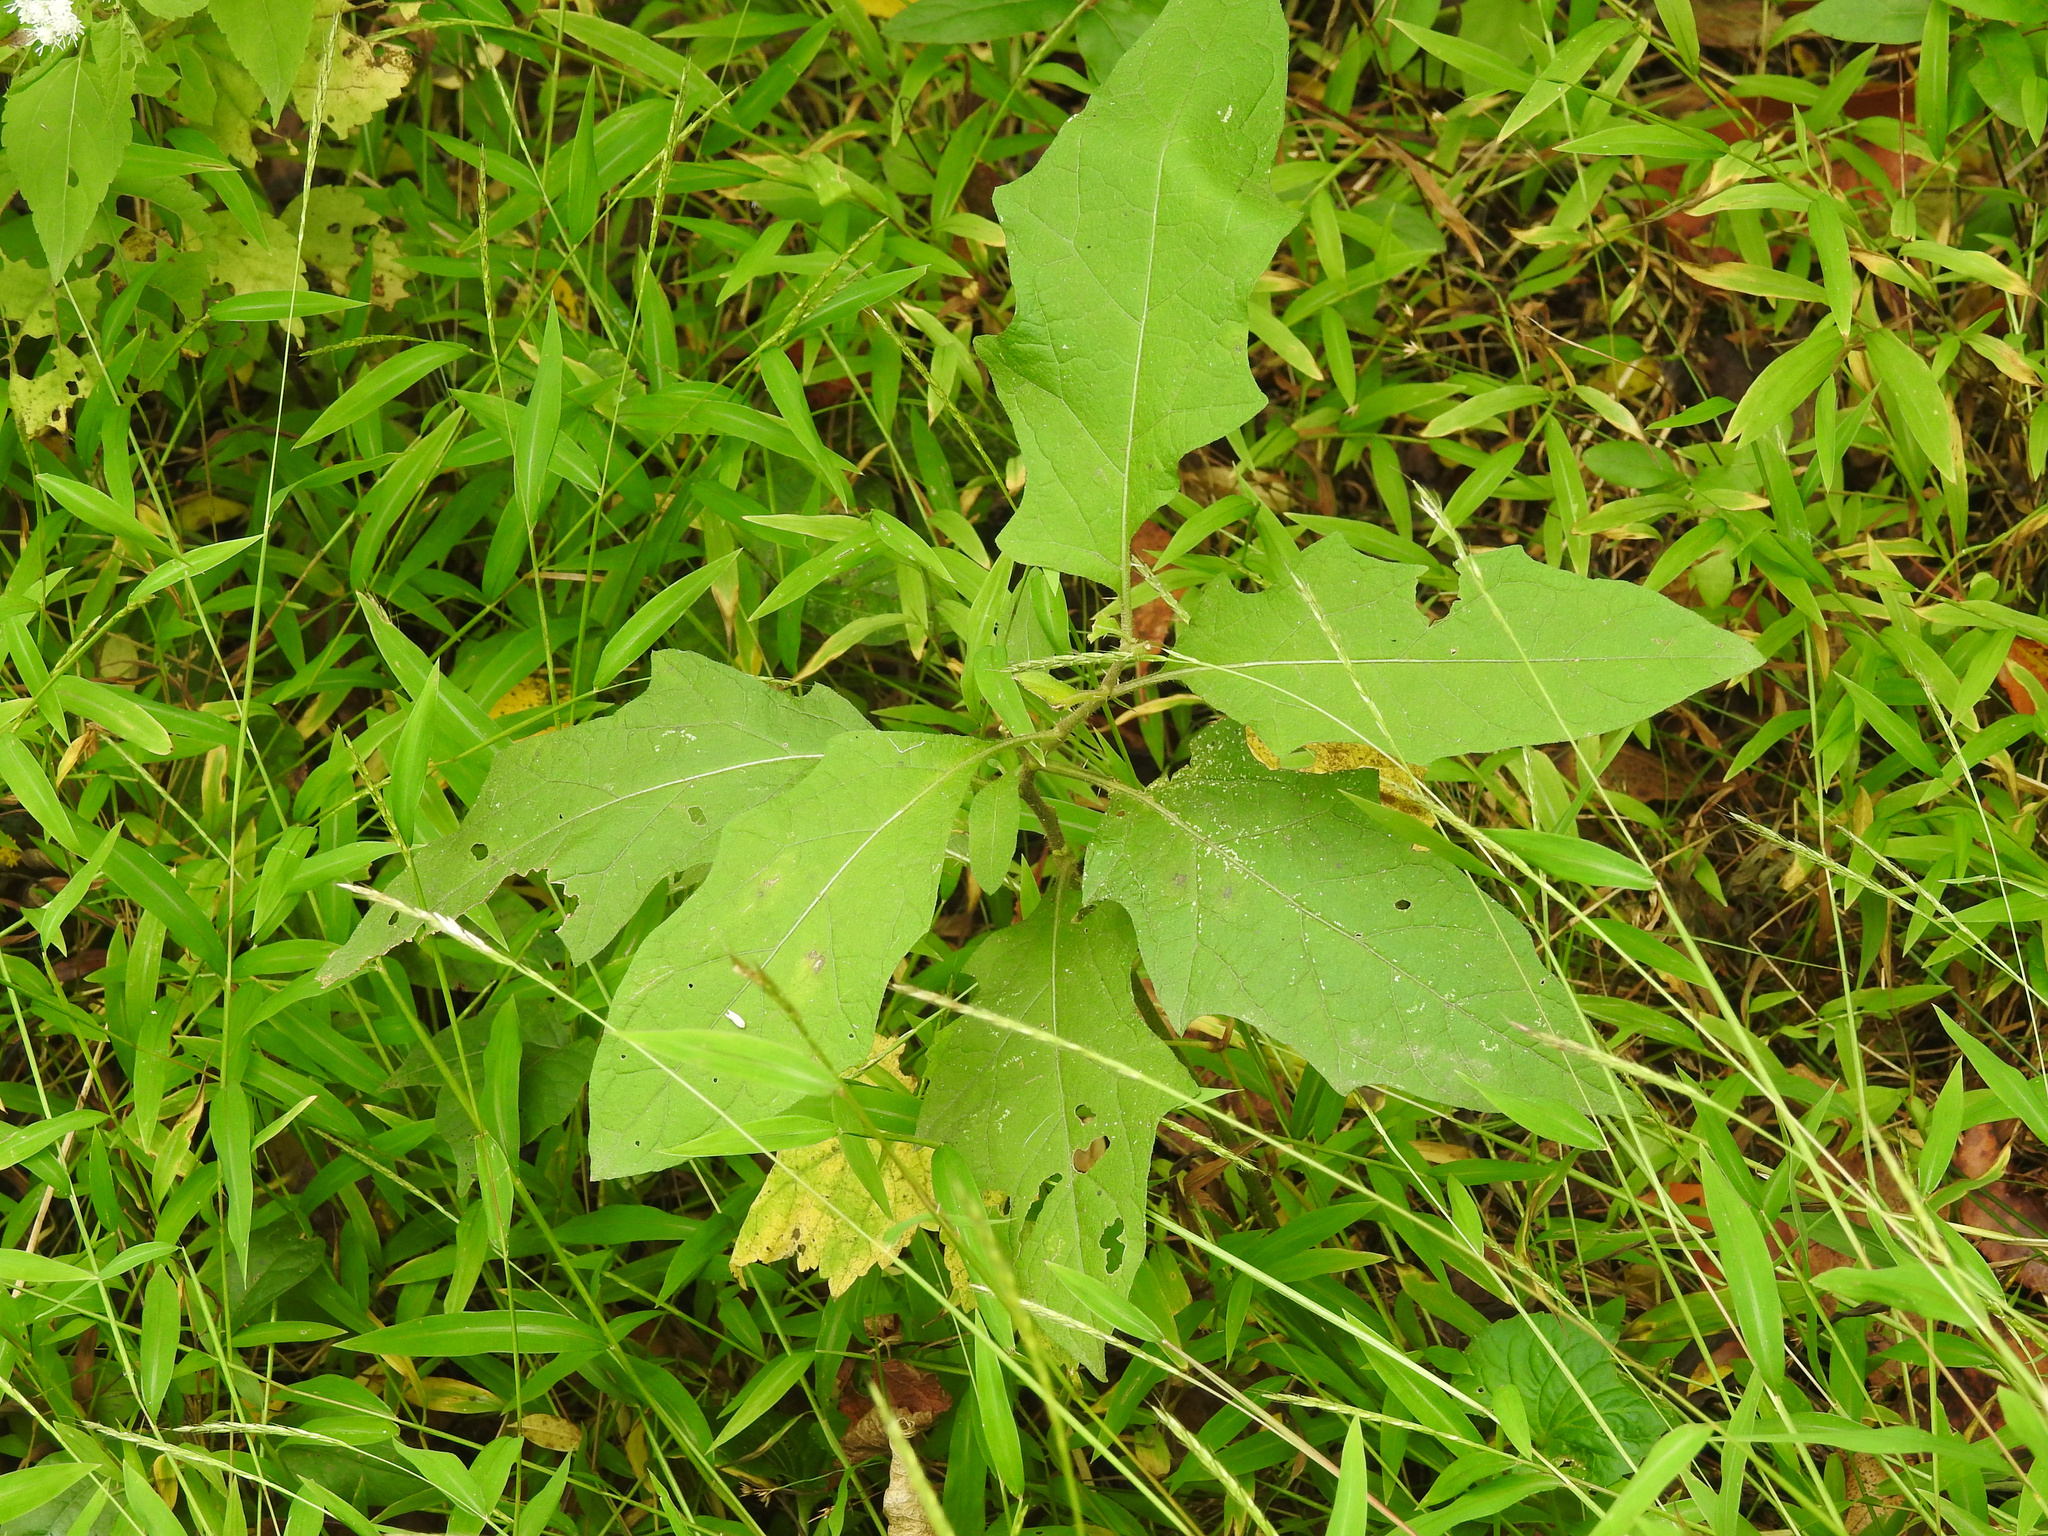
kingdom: Plantae
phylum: Tracheophyta
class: Magnoliopsida
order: Solanales
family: Solanaceae
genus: Solanum
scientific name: Solanum carolinense
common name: Horse-nettle
